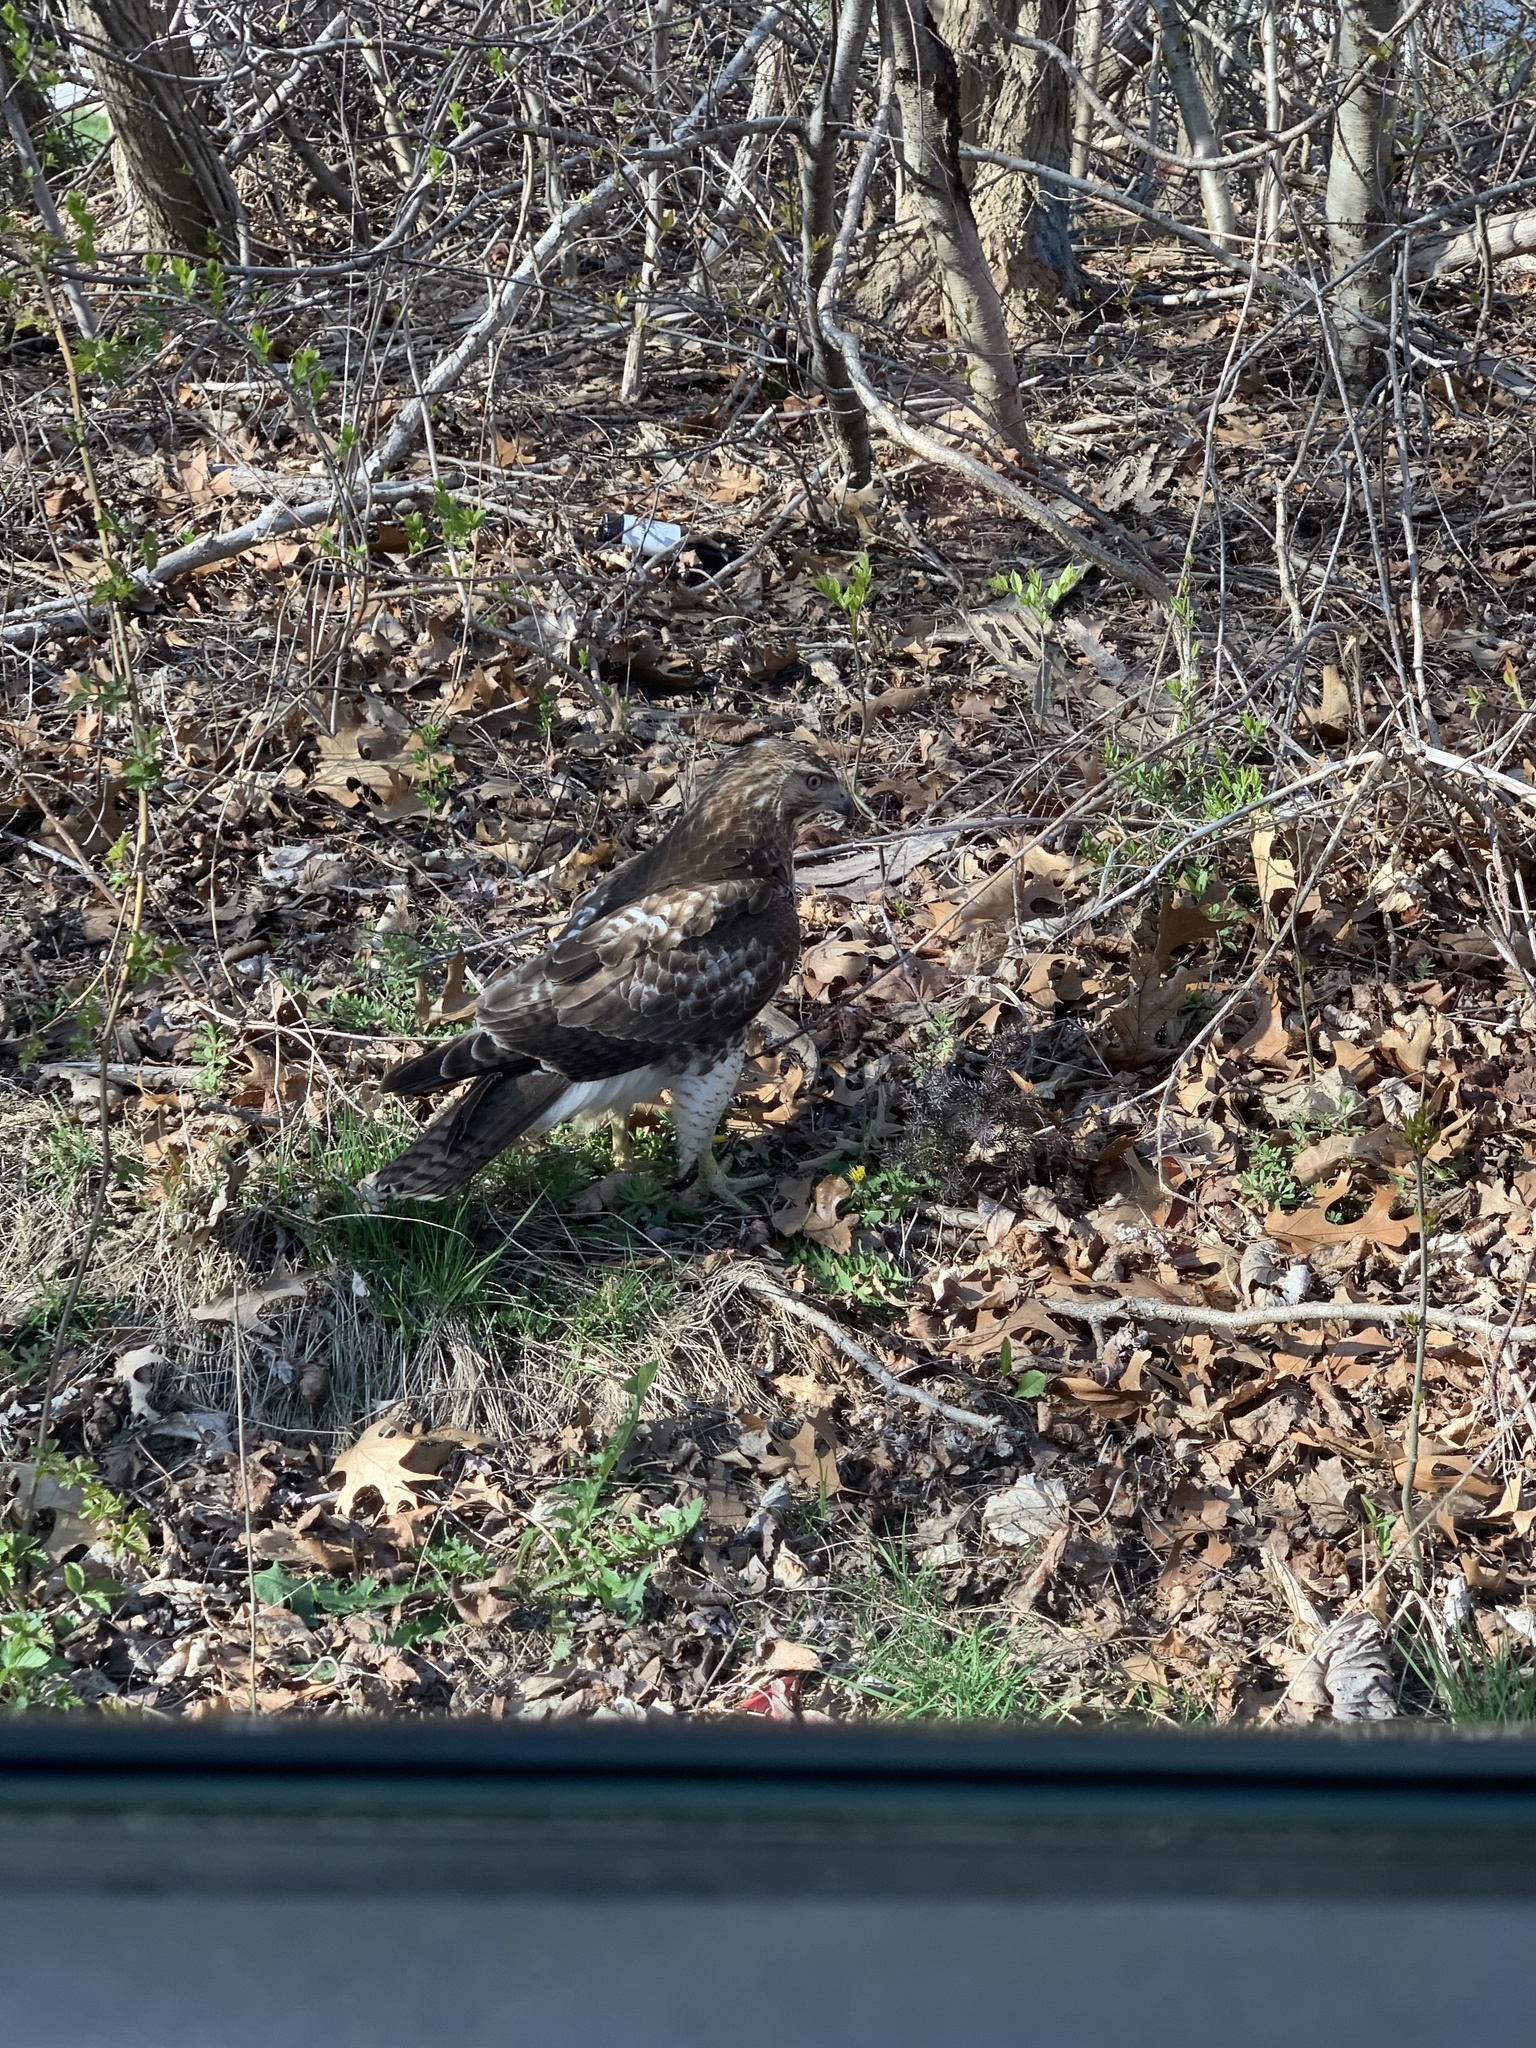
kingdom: Animalia
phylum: Chordata
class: Aves
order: Accipitriformes
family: Accipitridae
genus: Buteo
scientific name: Buteo jamaicensis
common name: Red-tailed hawk
